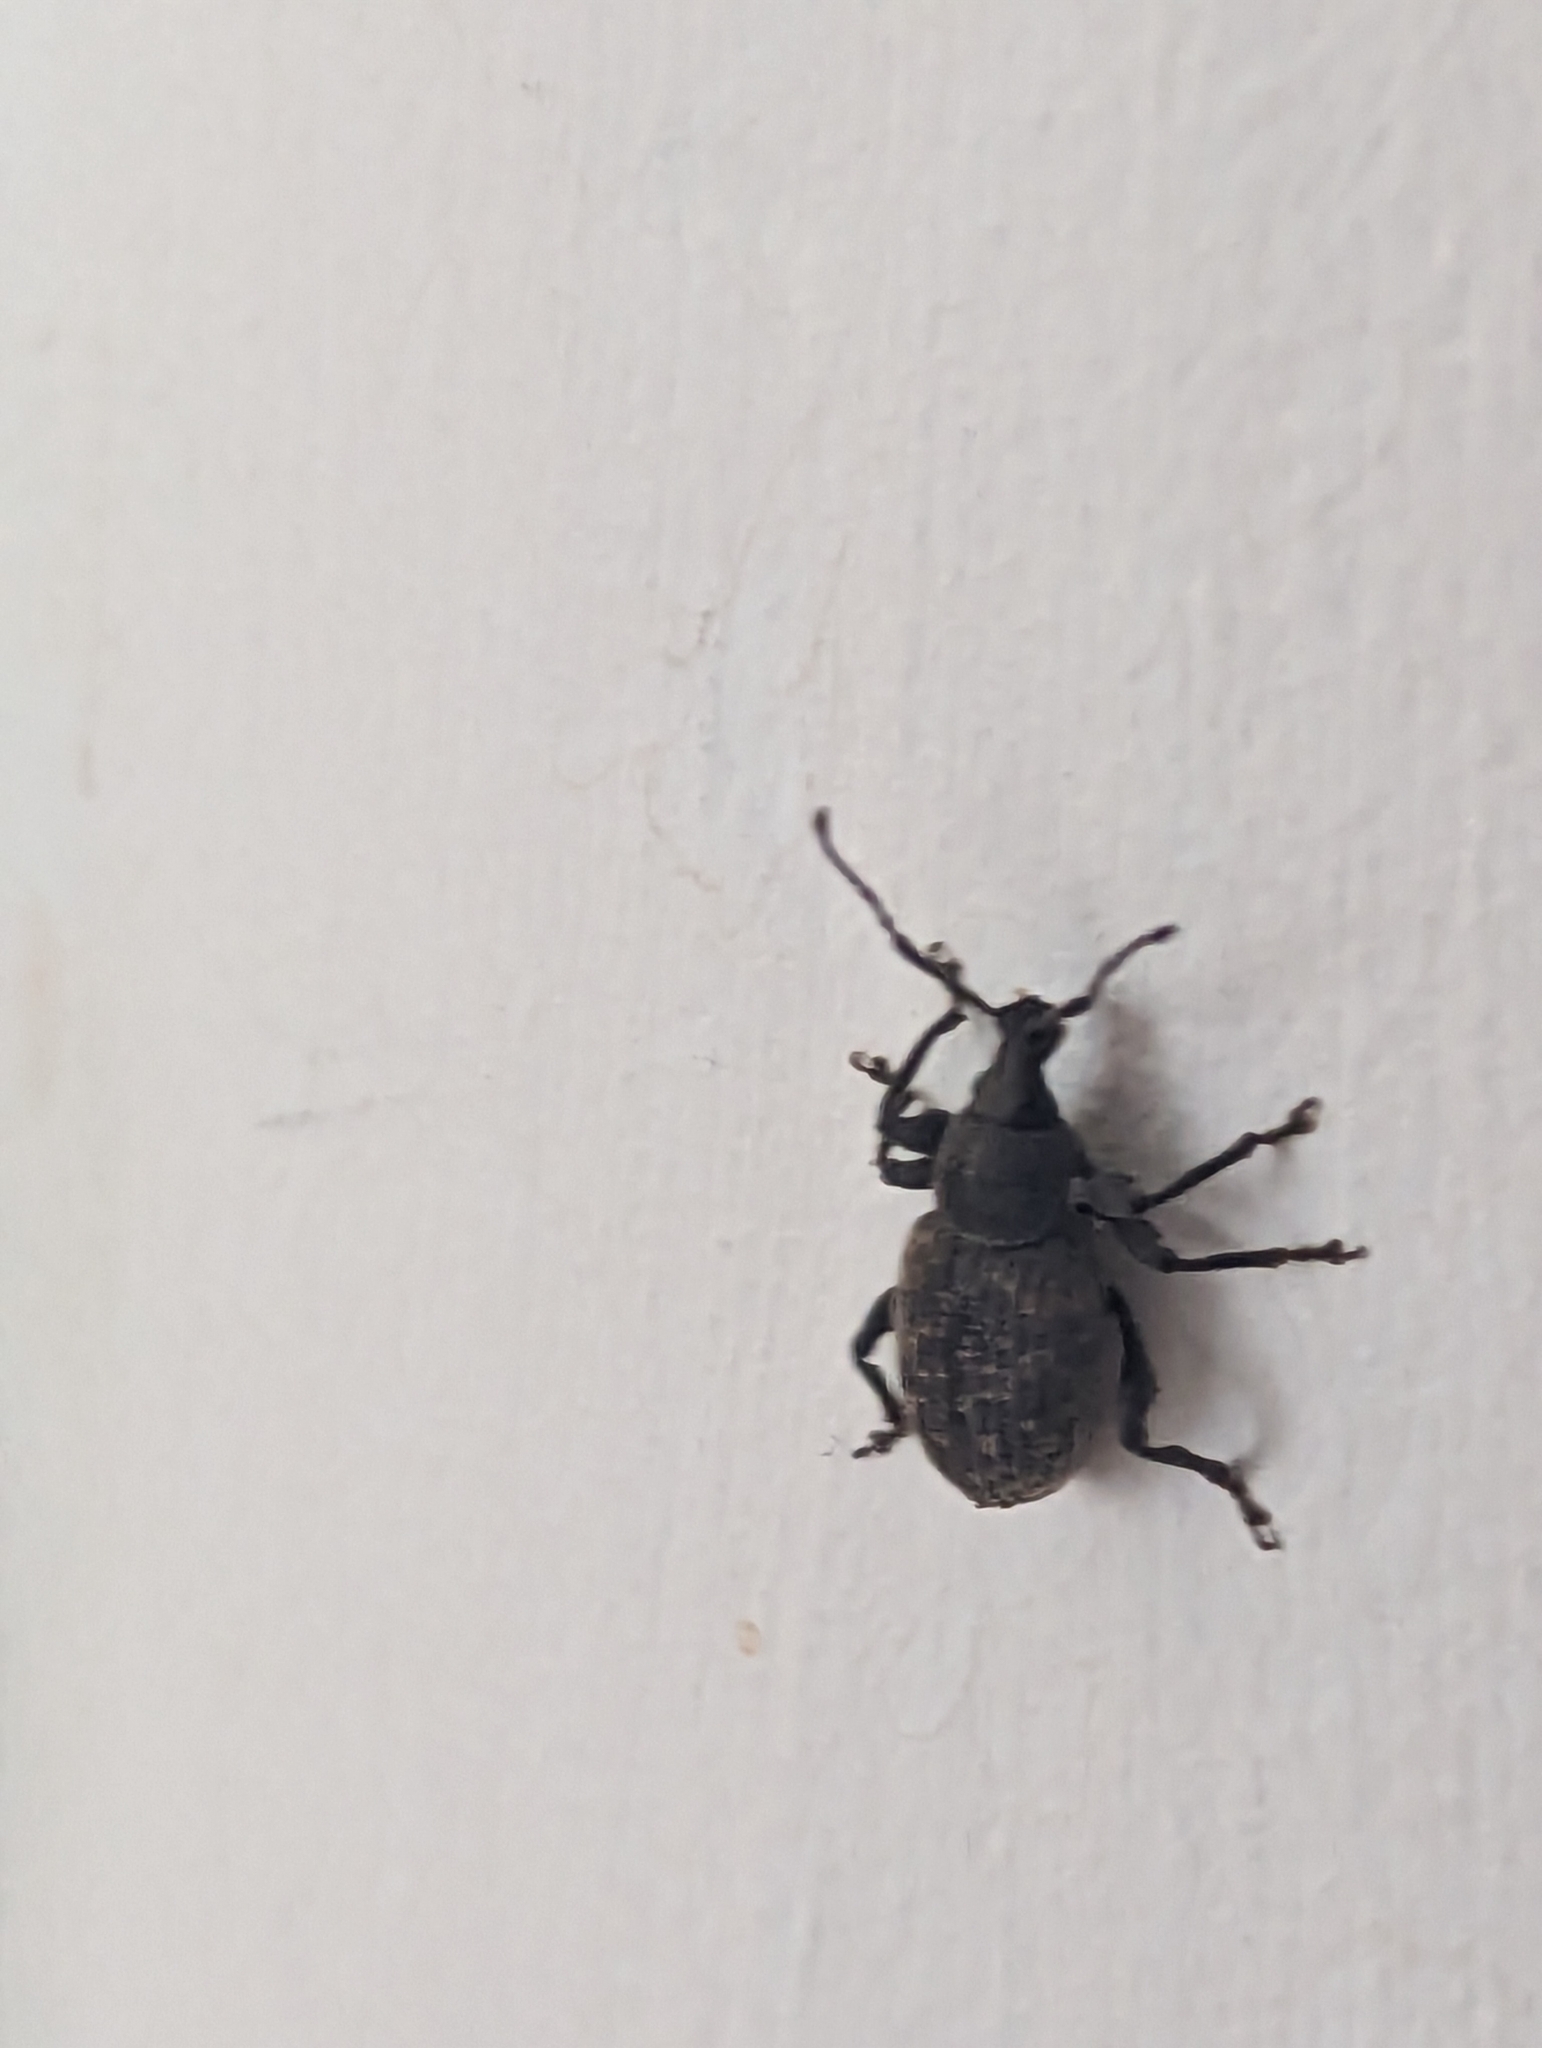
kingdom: Animalia
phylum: Arthropoda
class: Insecta
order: Coleoptera
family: Curculionidae
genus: Otiorhynchus
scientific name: Otiorhynchus sulcatus
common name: Black vine weevil
